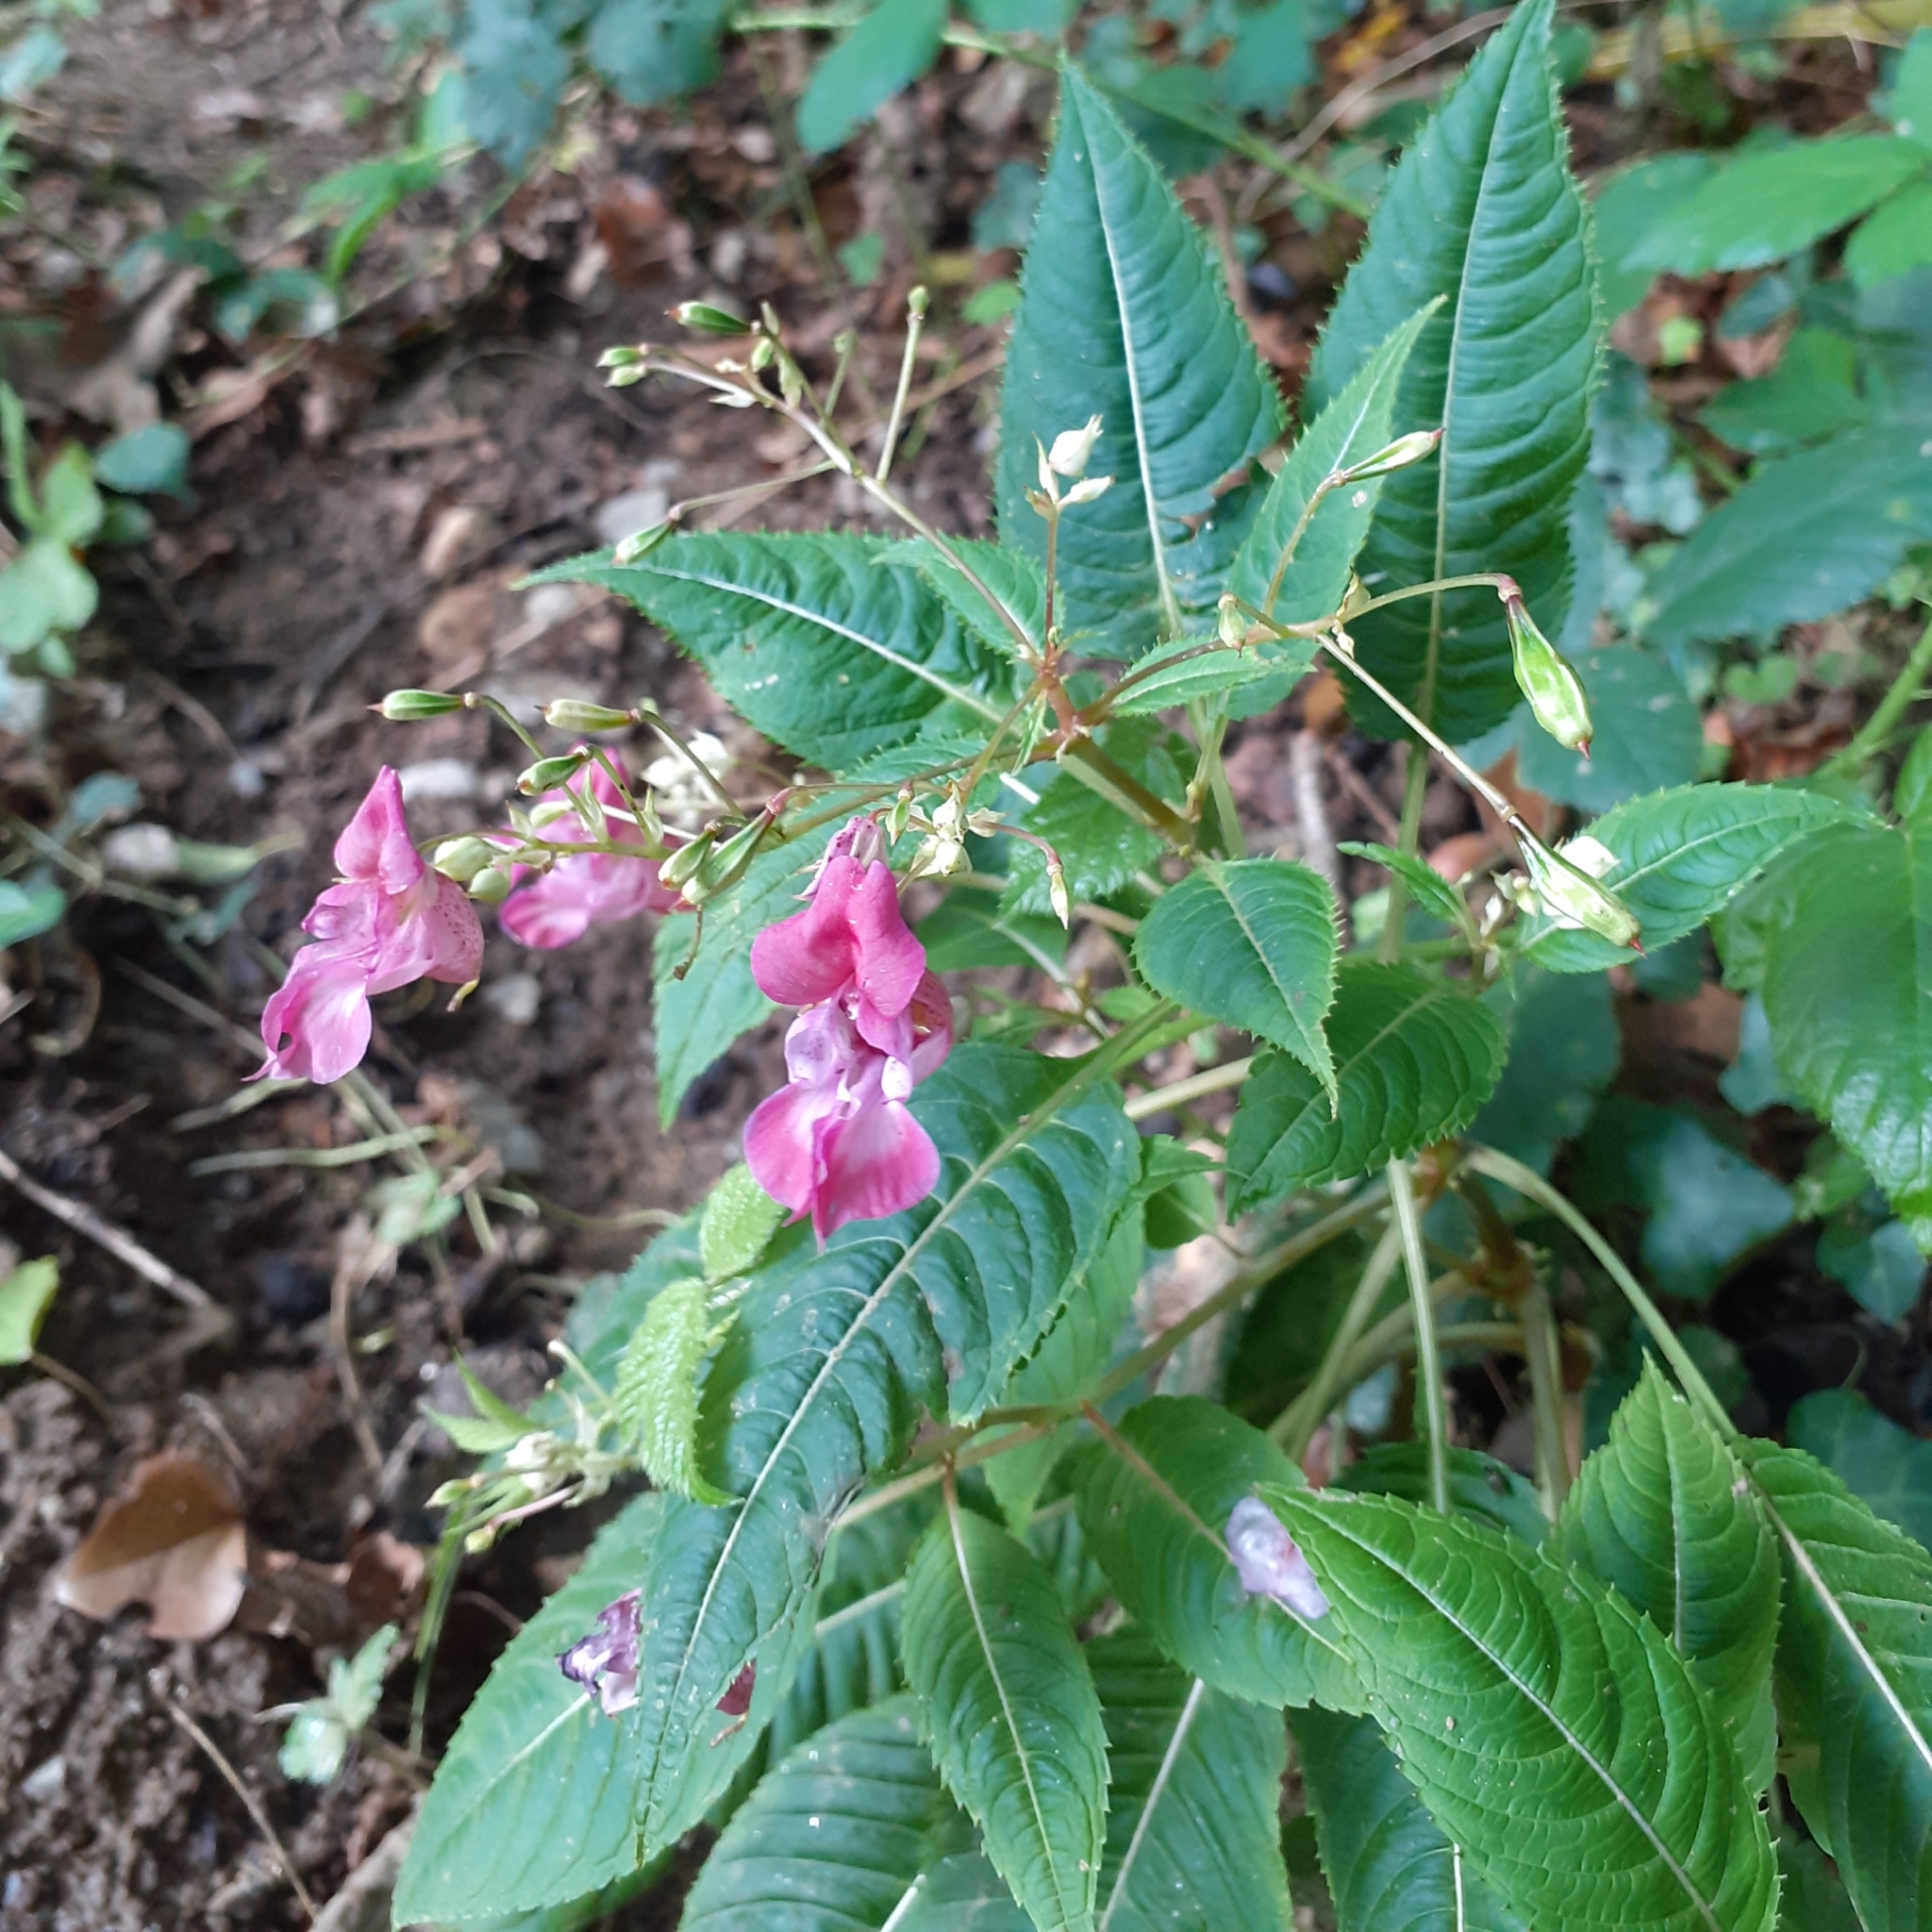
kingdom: Plantae
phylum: Tracheophyta
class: Magnoliopsida
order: Ericales
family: Balsaminaceae
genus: Impatiens
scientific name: Impatiens glandulifera
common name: Himalayan balsam
